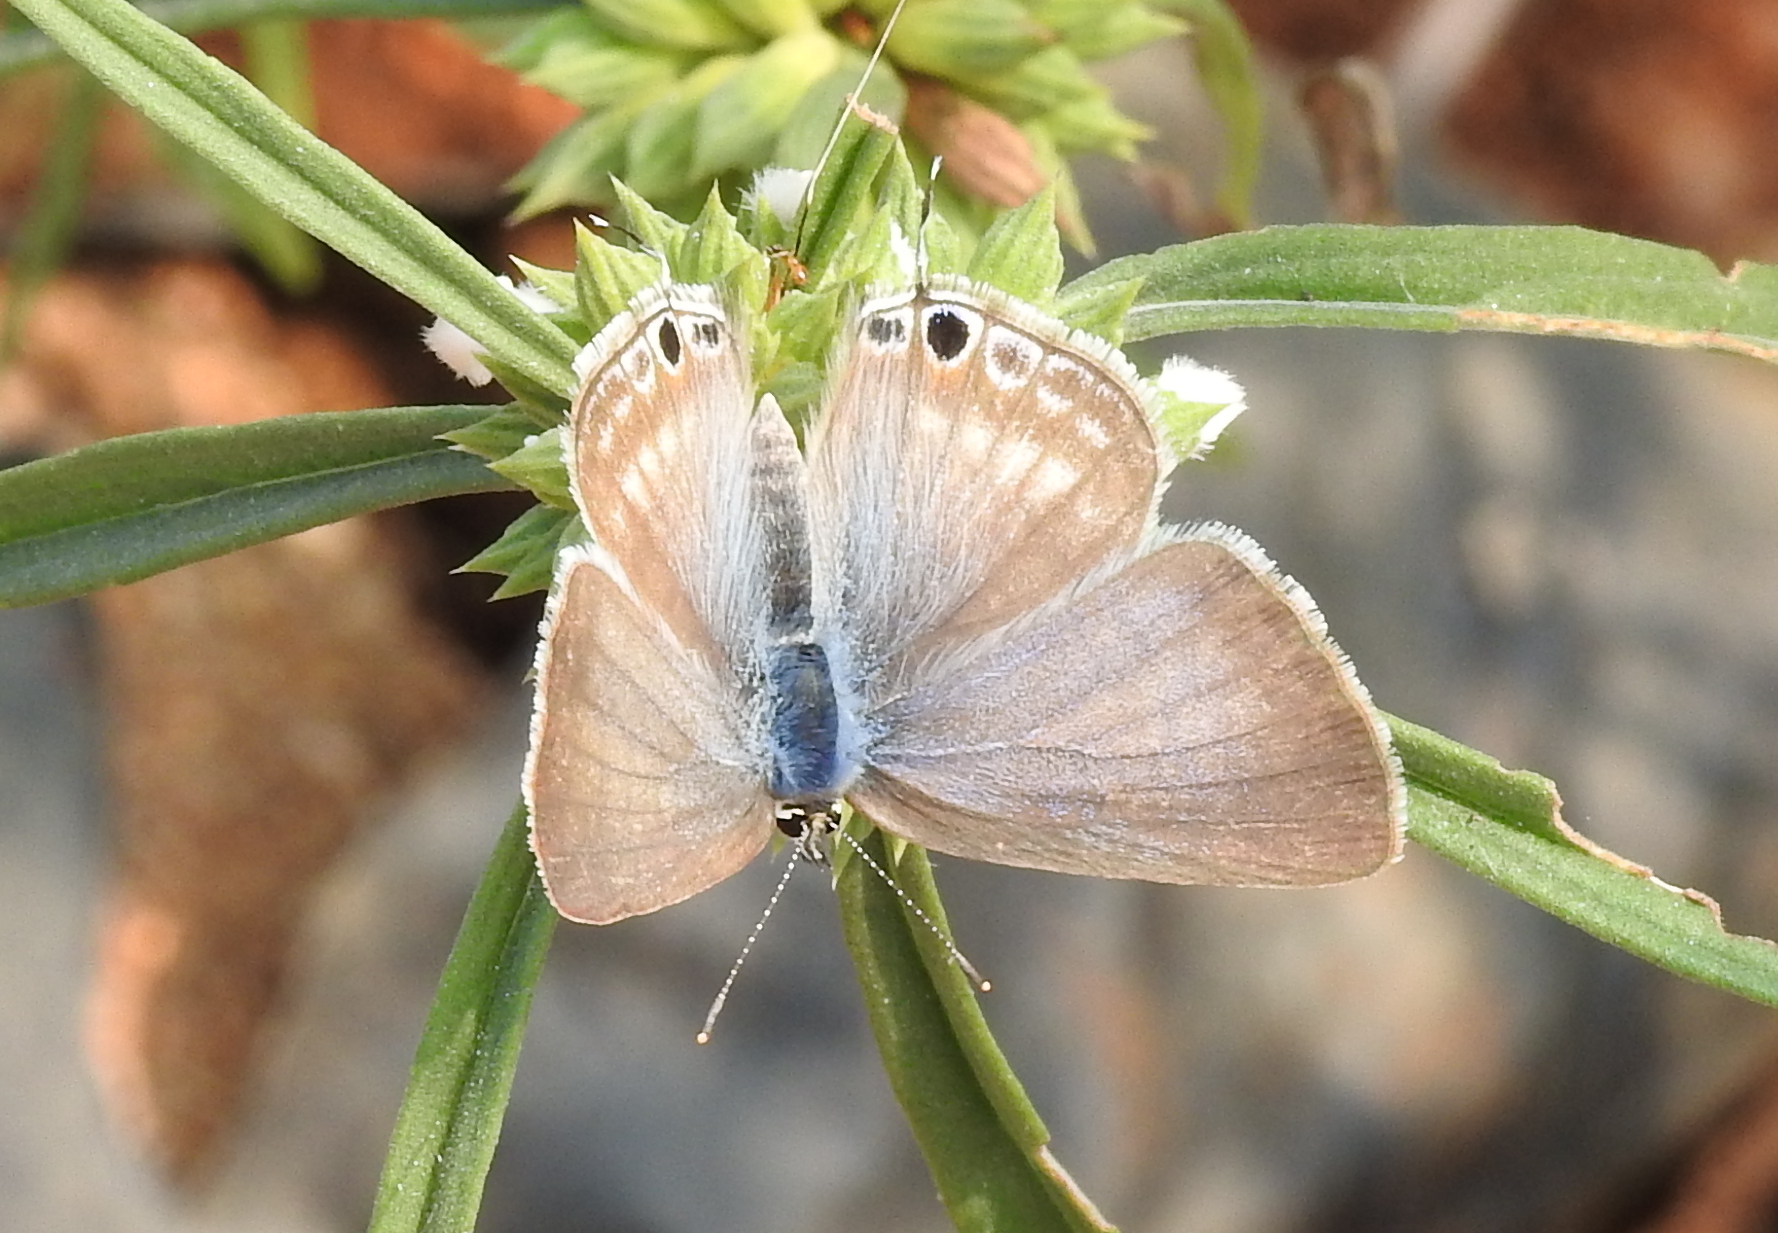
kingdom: Animalia
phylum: Arthropoda
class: Insecta
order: Lepidoptera
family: Lycaenidae
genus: Lampides
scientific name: Lampides boeticus
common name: Long-tailed blue
